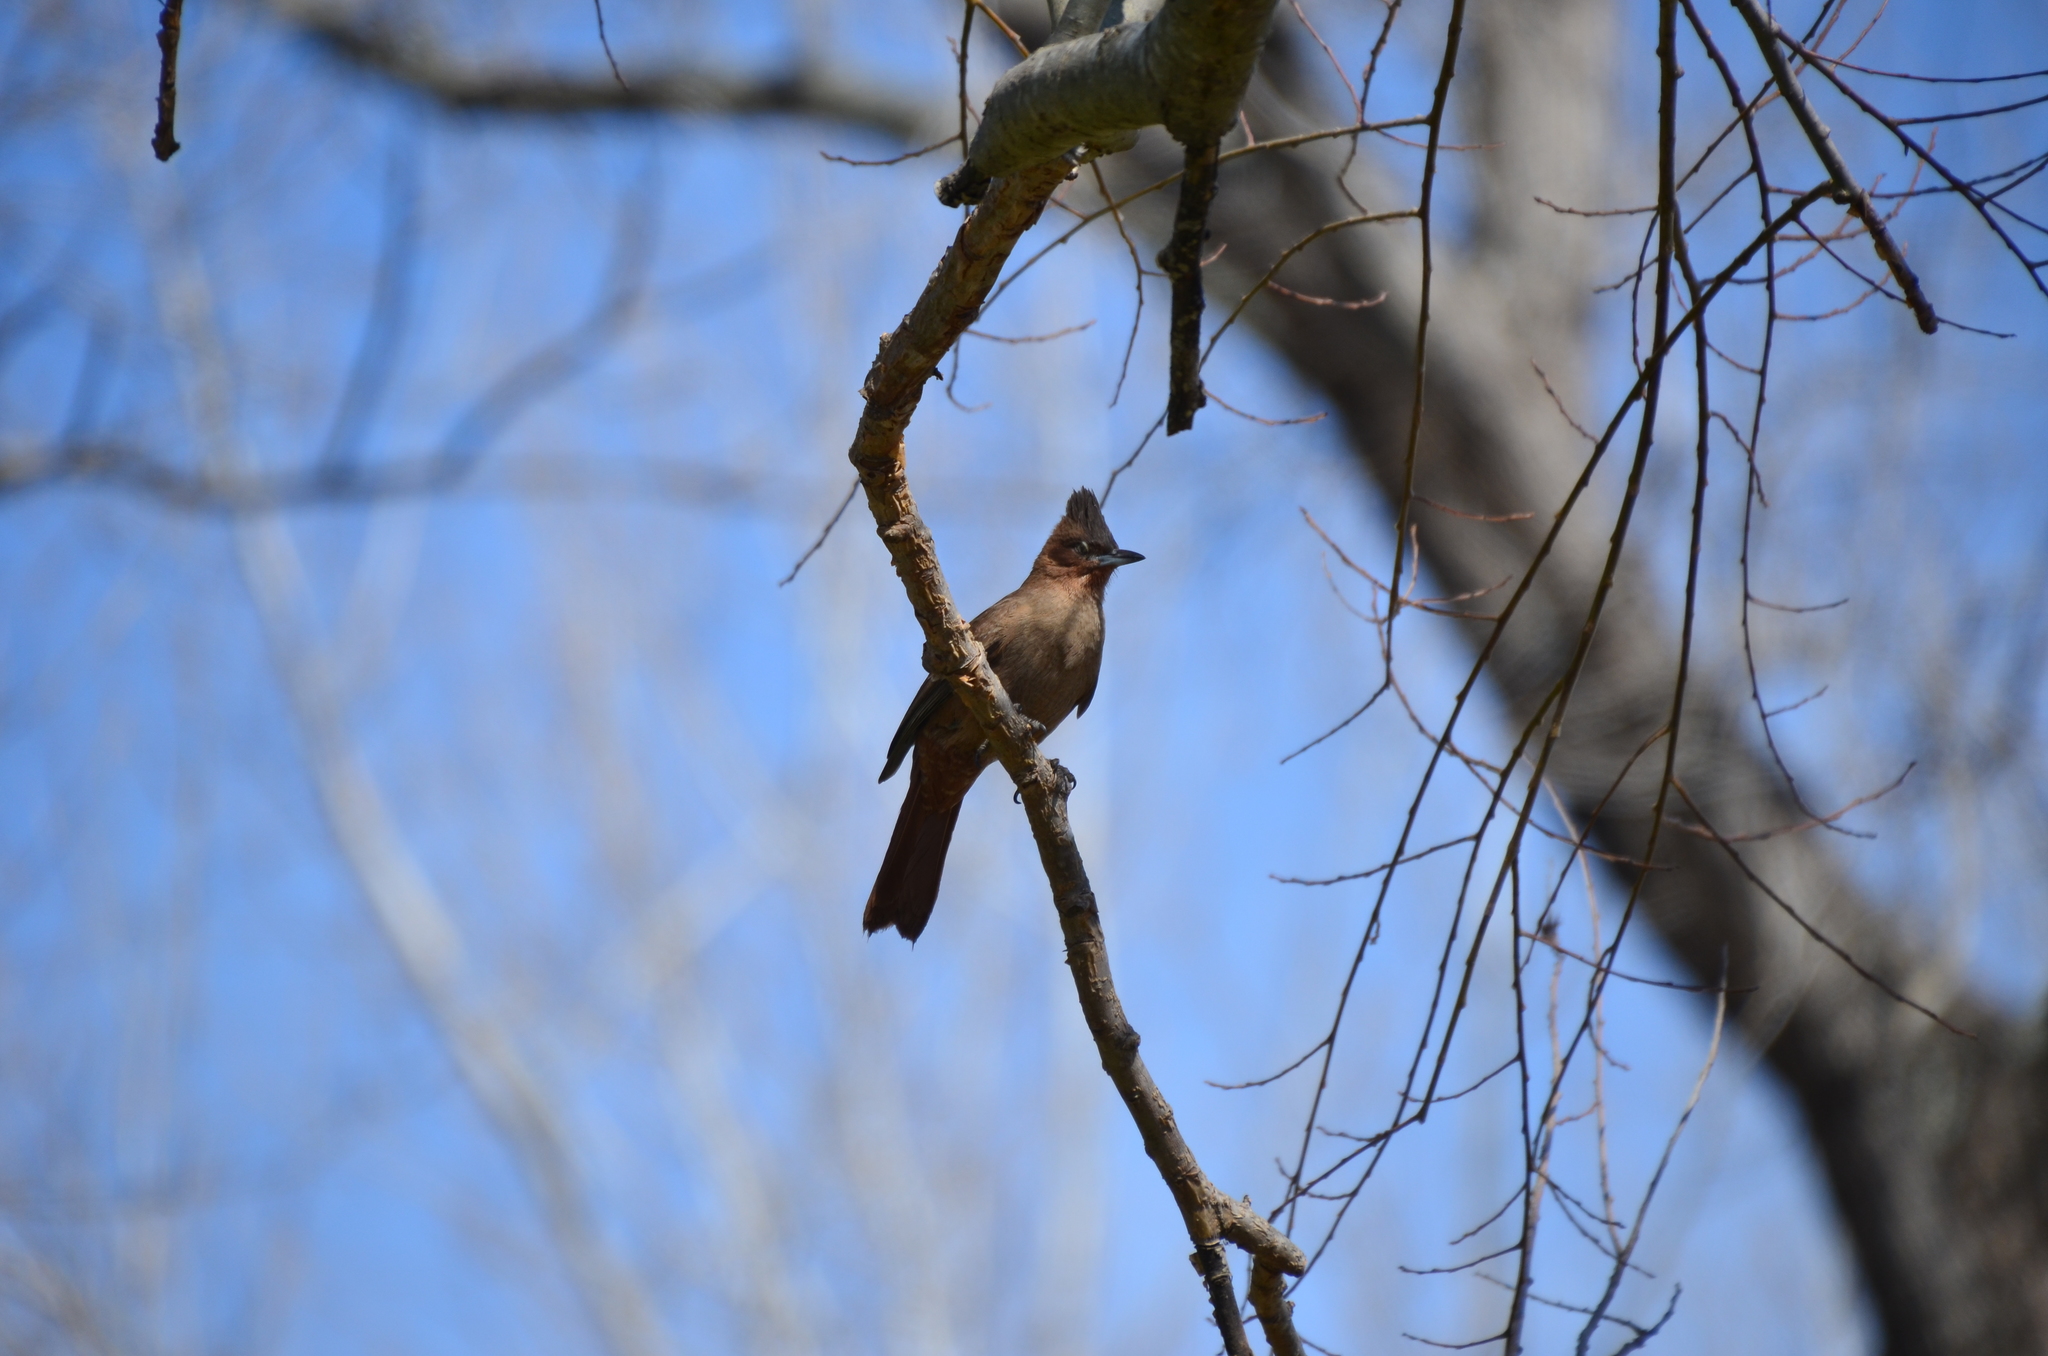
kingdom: Animalia
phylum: Chordata
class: Aves
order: Passeriformes
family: Furnariidae
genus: Pseudoseisura
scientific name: Pseudoseisura lophotes
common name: Brown cacholote
